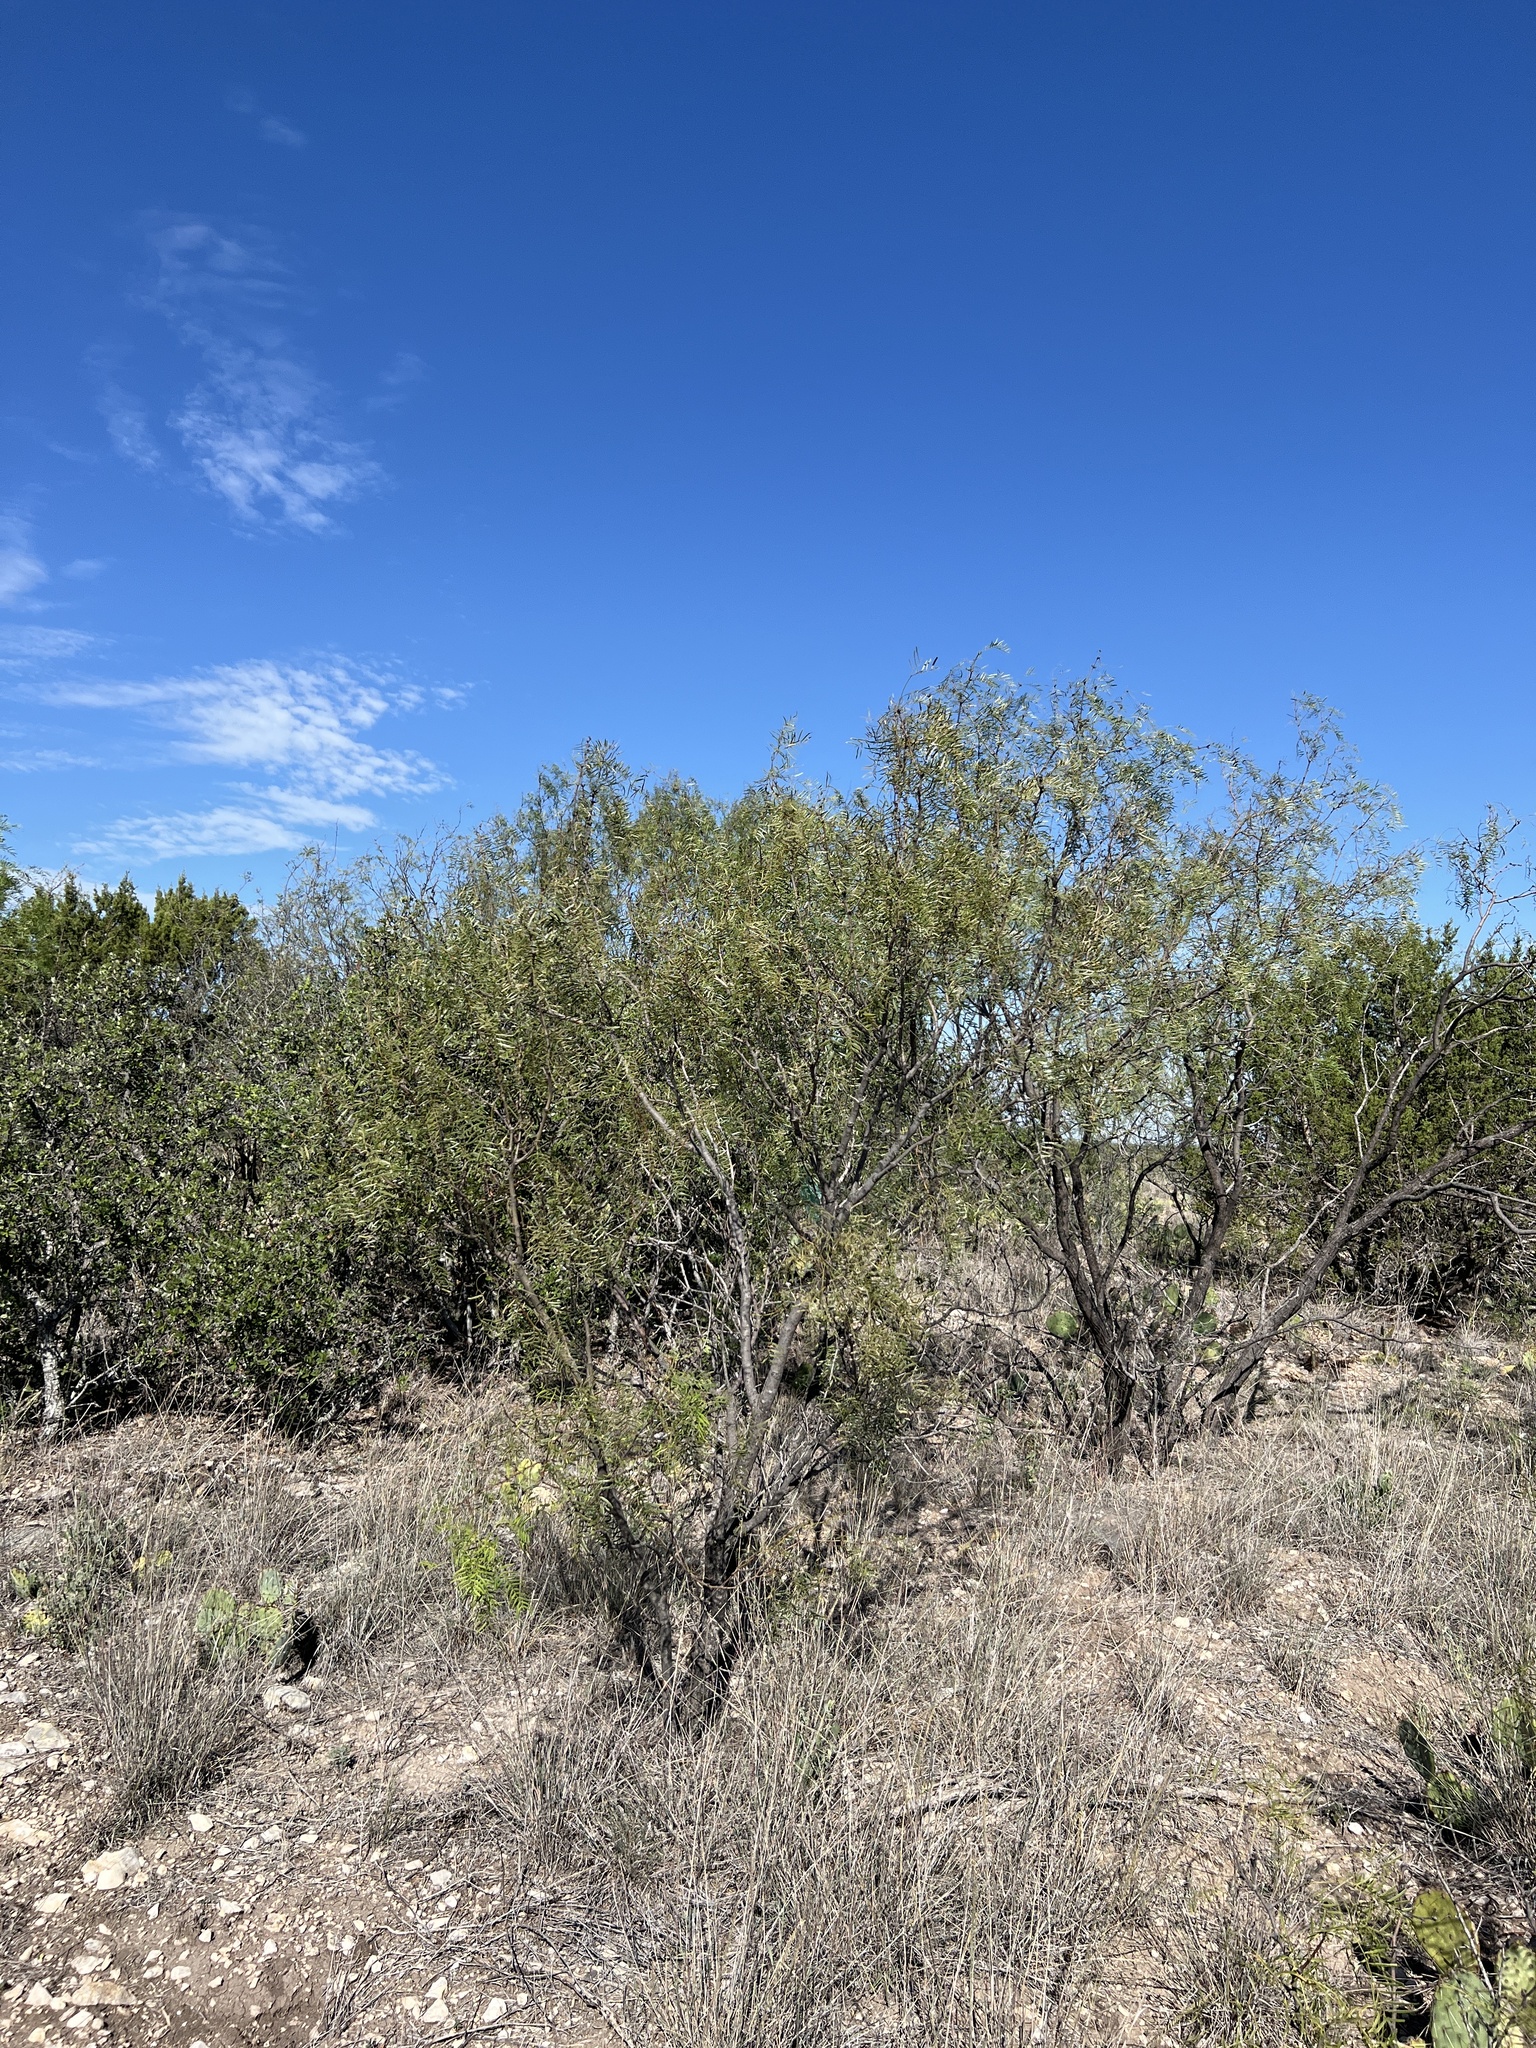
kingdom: Plantae
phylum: Tracheophyta
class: Magnoliopsida
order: Fabales
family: Fabaceae
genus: Prosopis
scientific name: Prosopis glandulosa
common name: Honey mesquite
